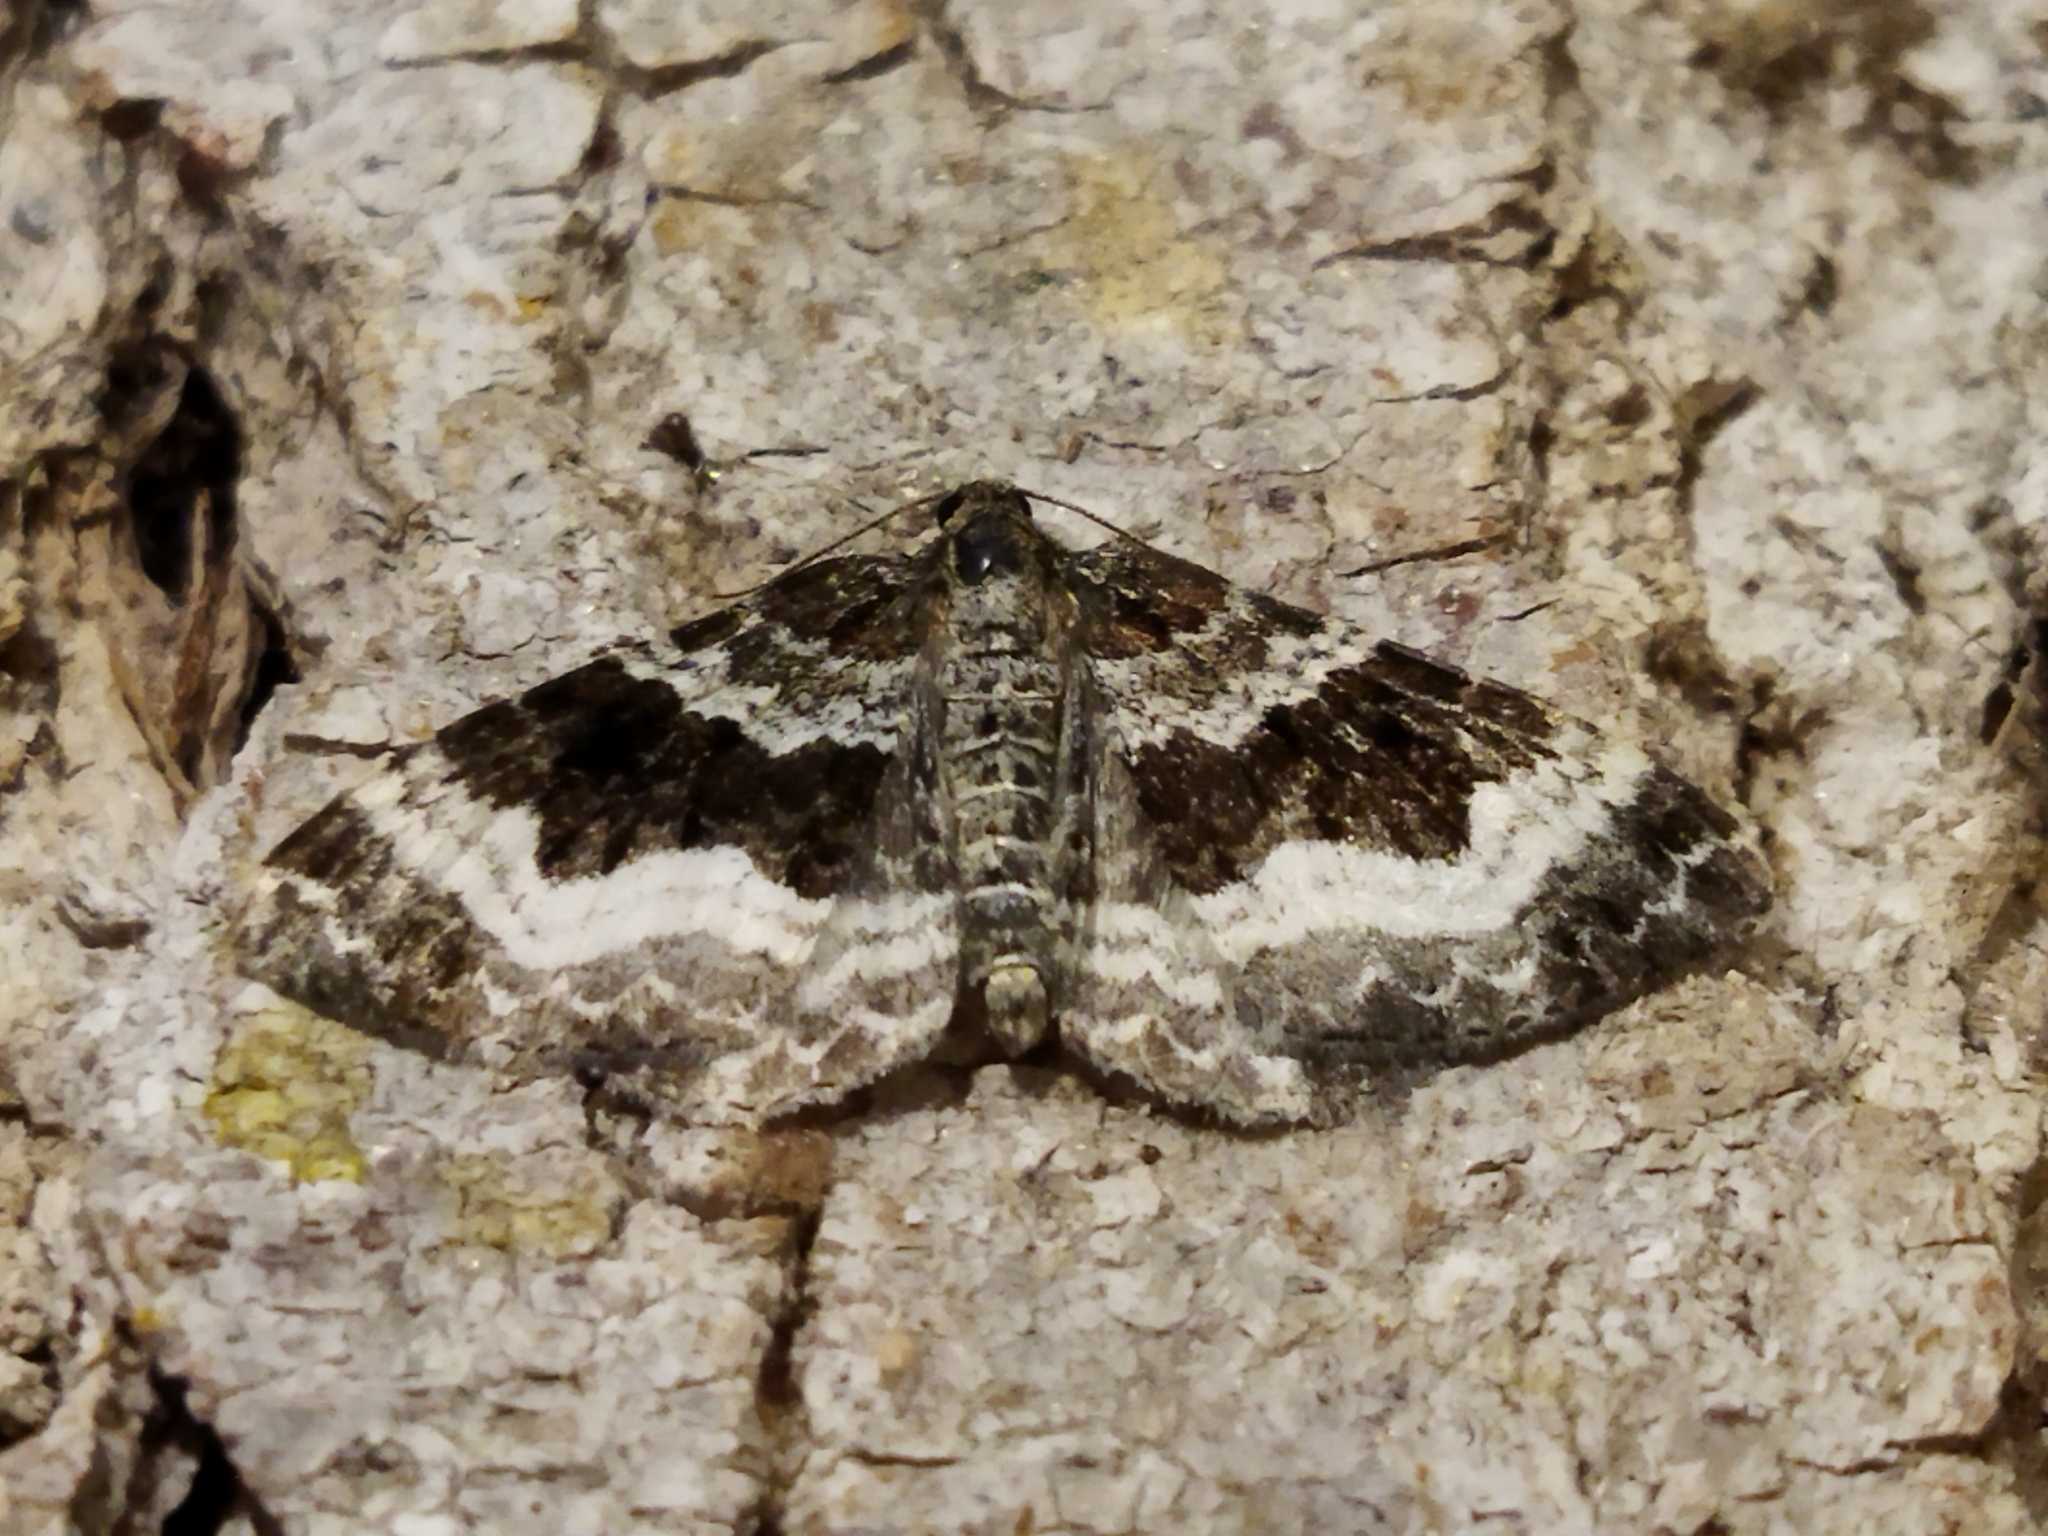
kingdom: Animalia
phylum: Arthropoda
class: Insecta
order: Lepidoptera
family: Geometridae
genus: Epirrhoe
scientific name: Epirrhoe alternata
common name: Common carpet
